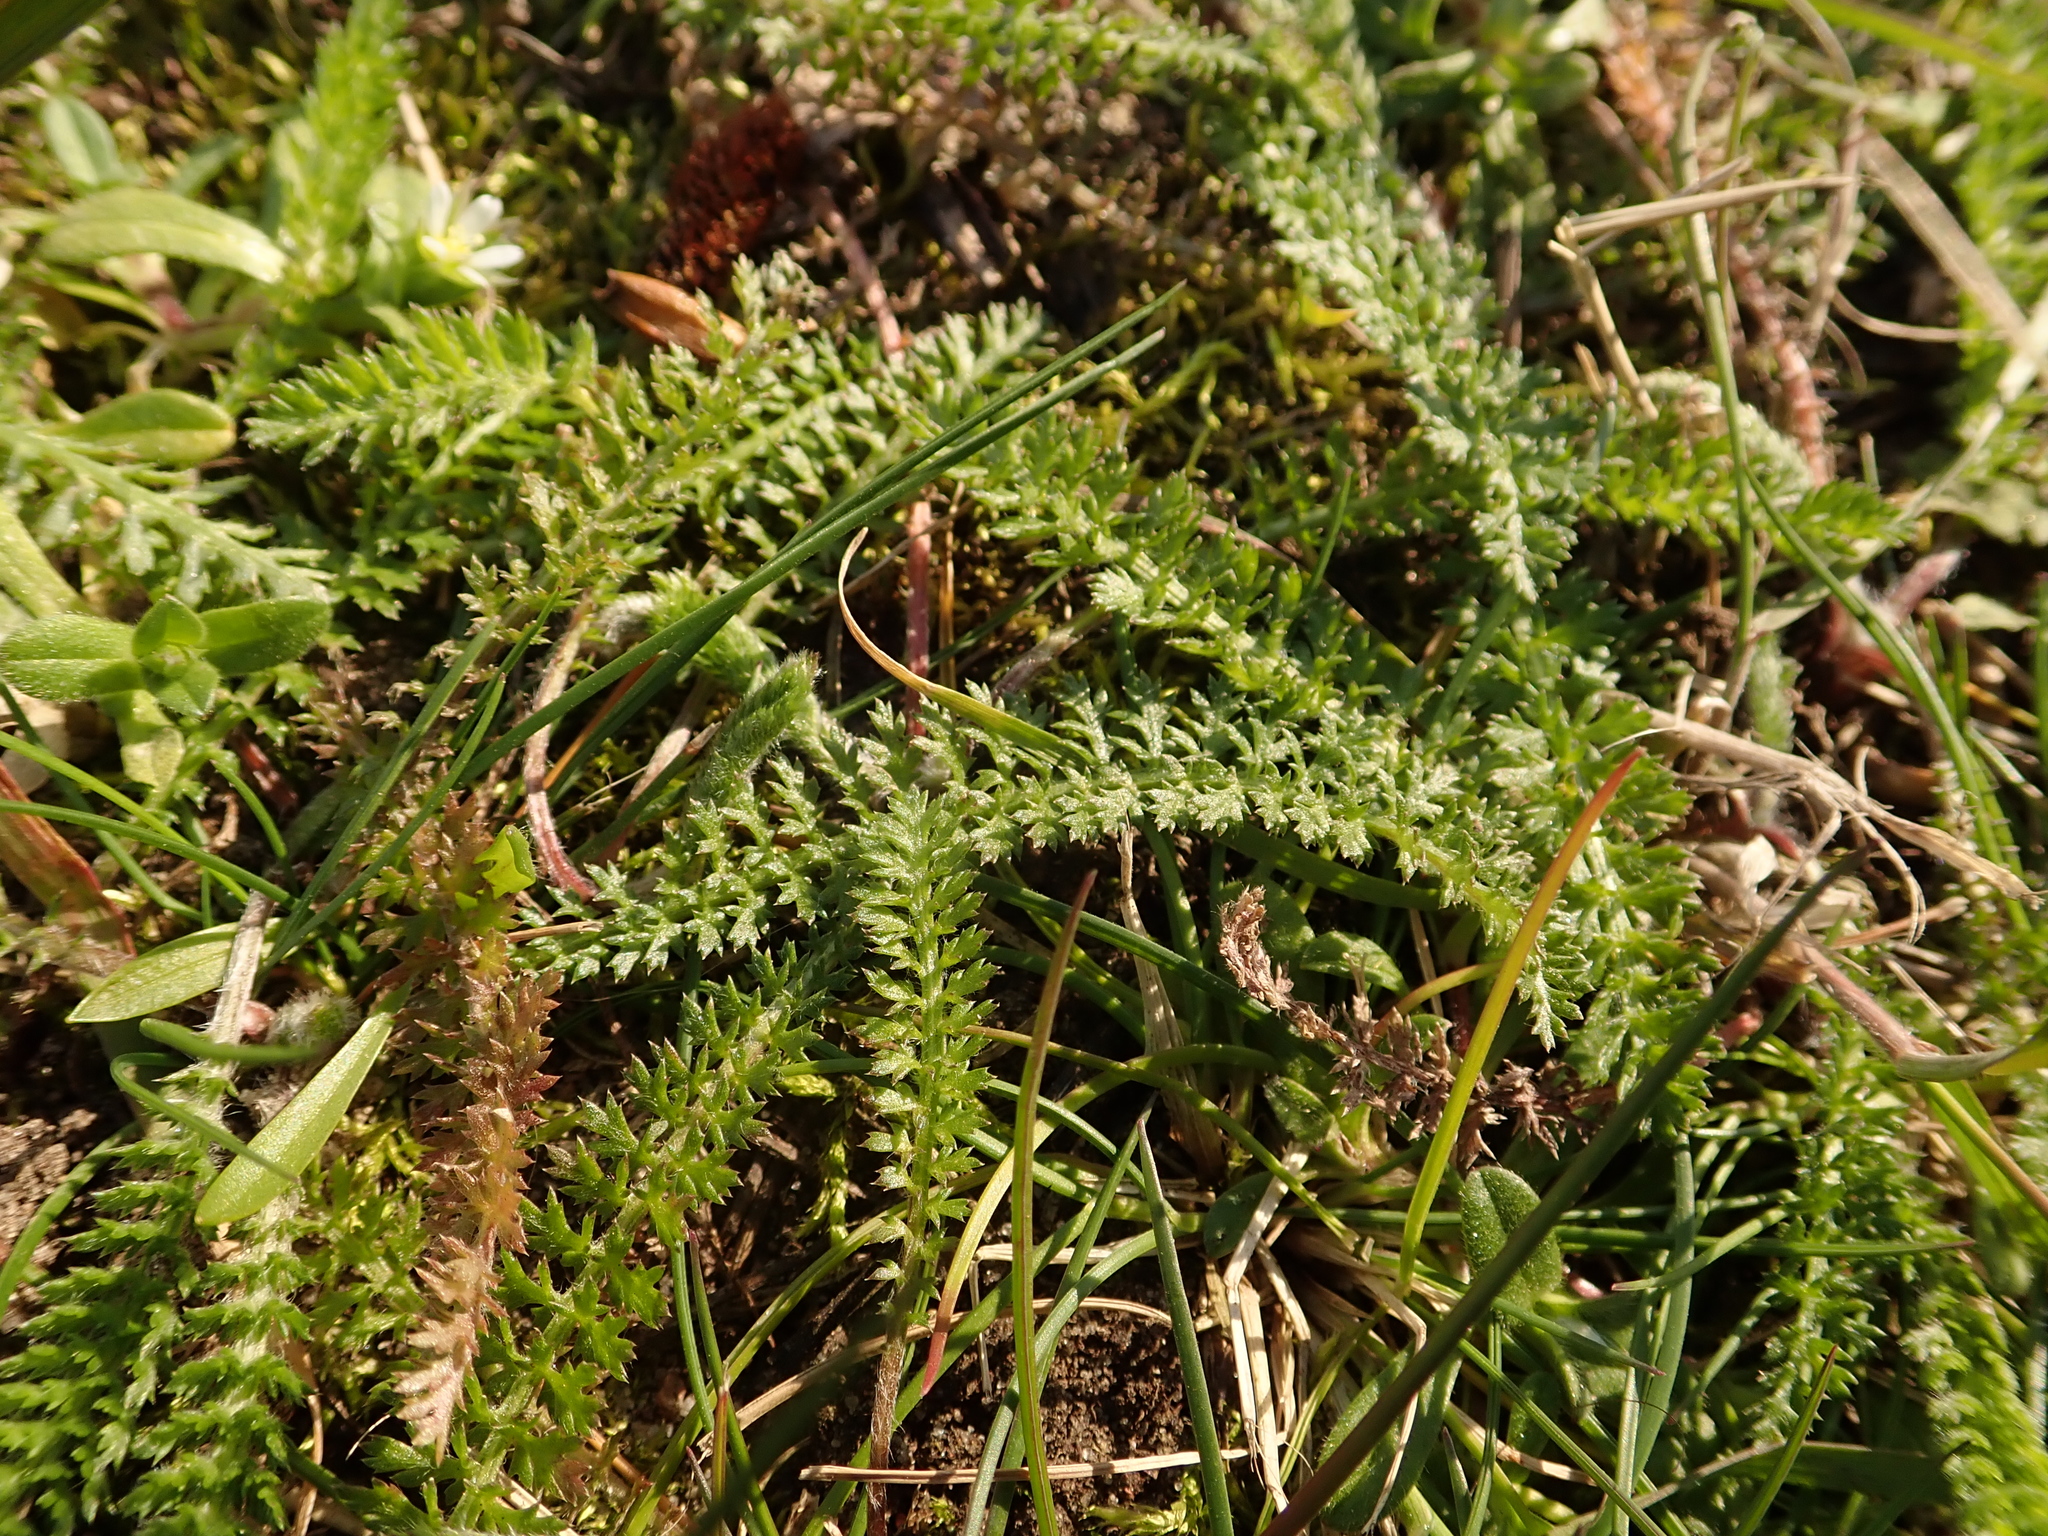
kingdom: Plantae
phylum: Tracheophyta
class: Magnoliopsida
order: Asterales
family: Asteraceae
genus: Achillea
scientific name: Achillea millefolium
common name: Yarrow
